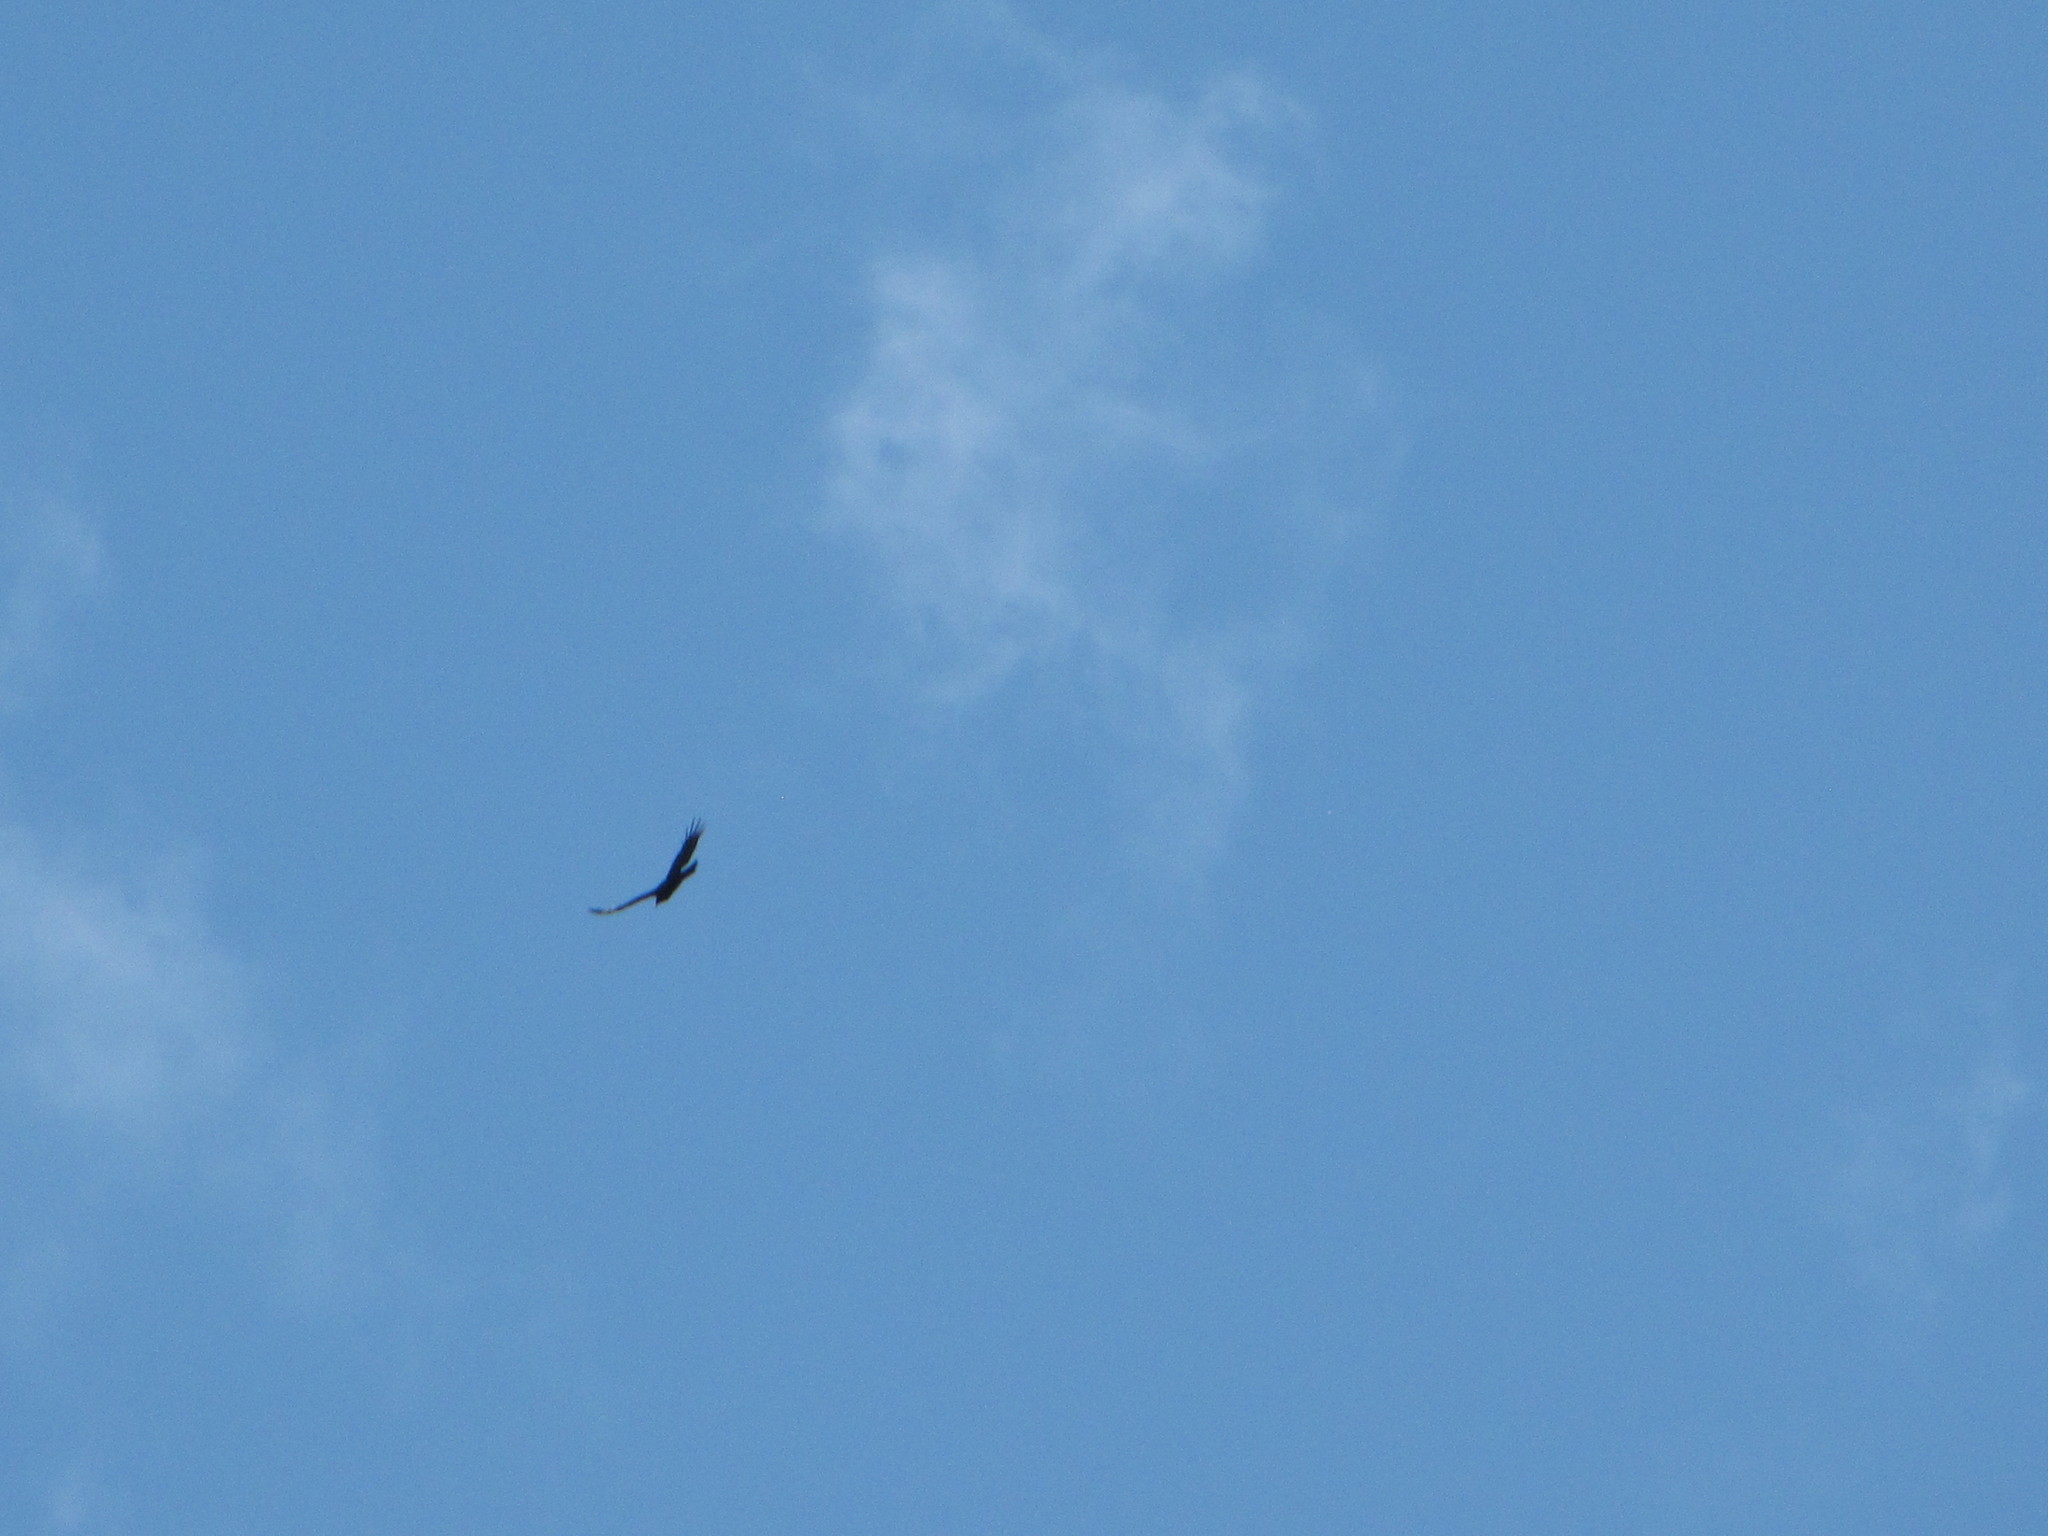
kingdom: Animalia
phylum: Chordata
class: Aves
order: Accipitriformes
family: Cathartidae
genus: Cathartes
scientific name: Cathartes aura
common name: Turkey vulture
